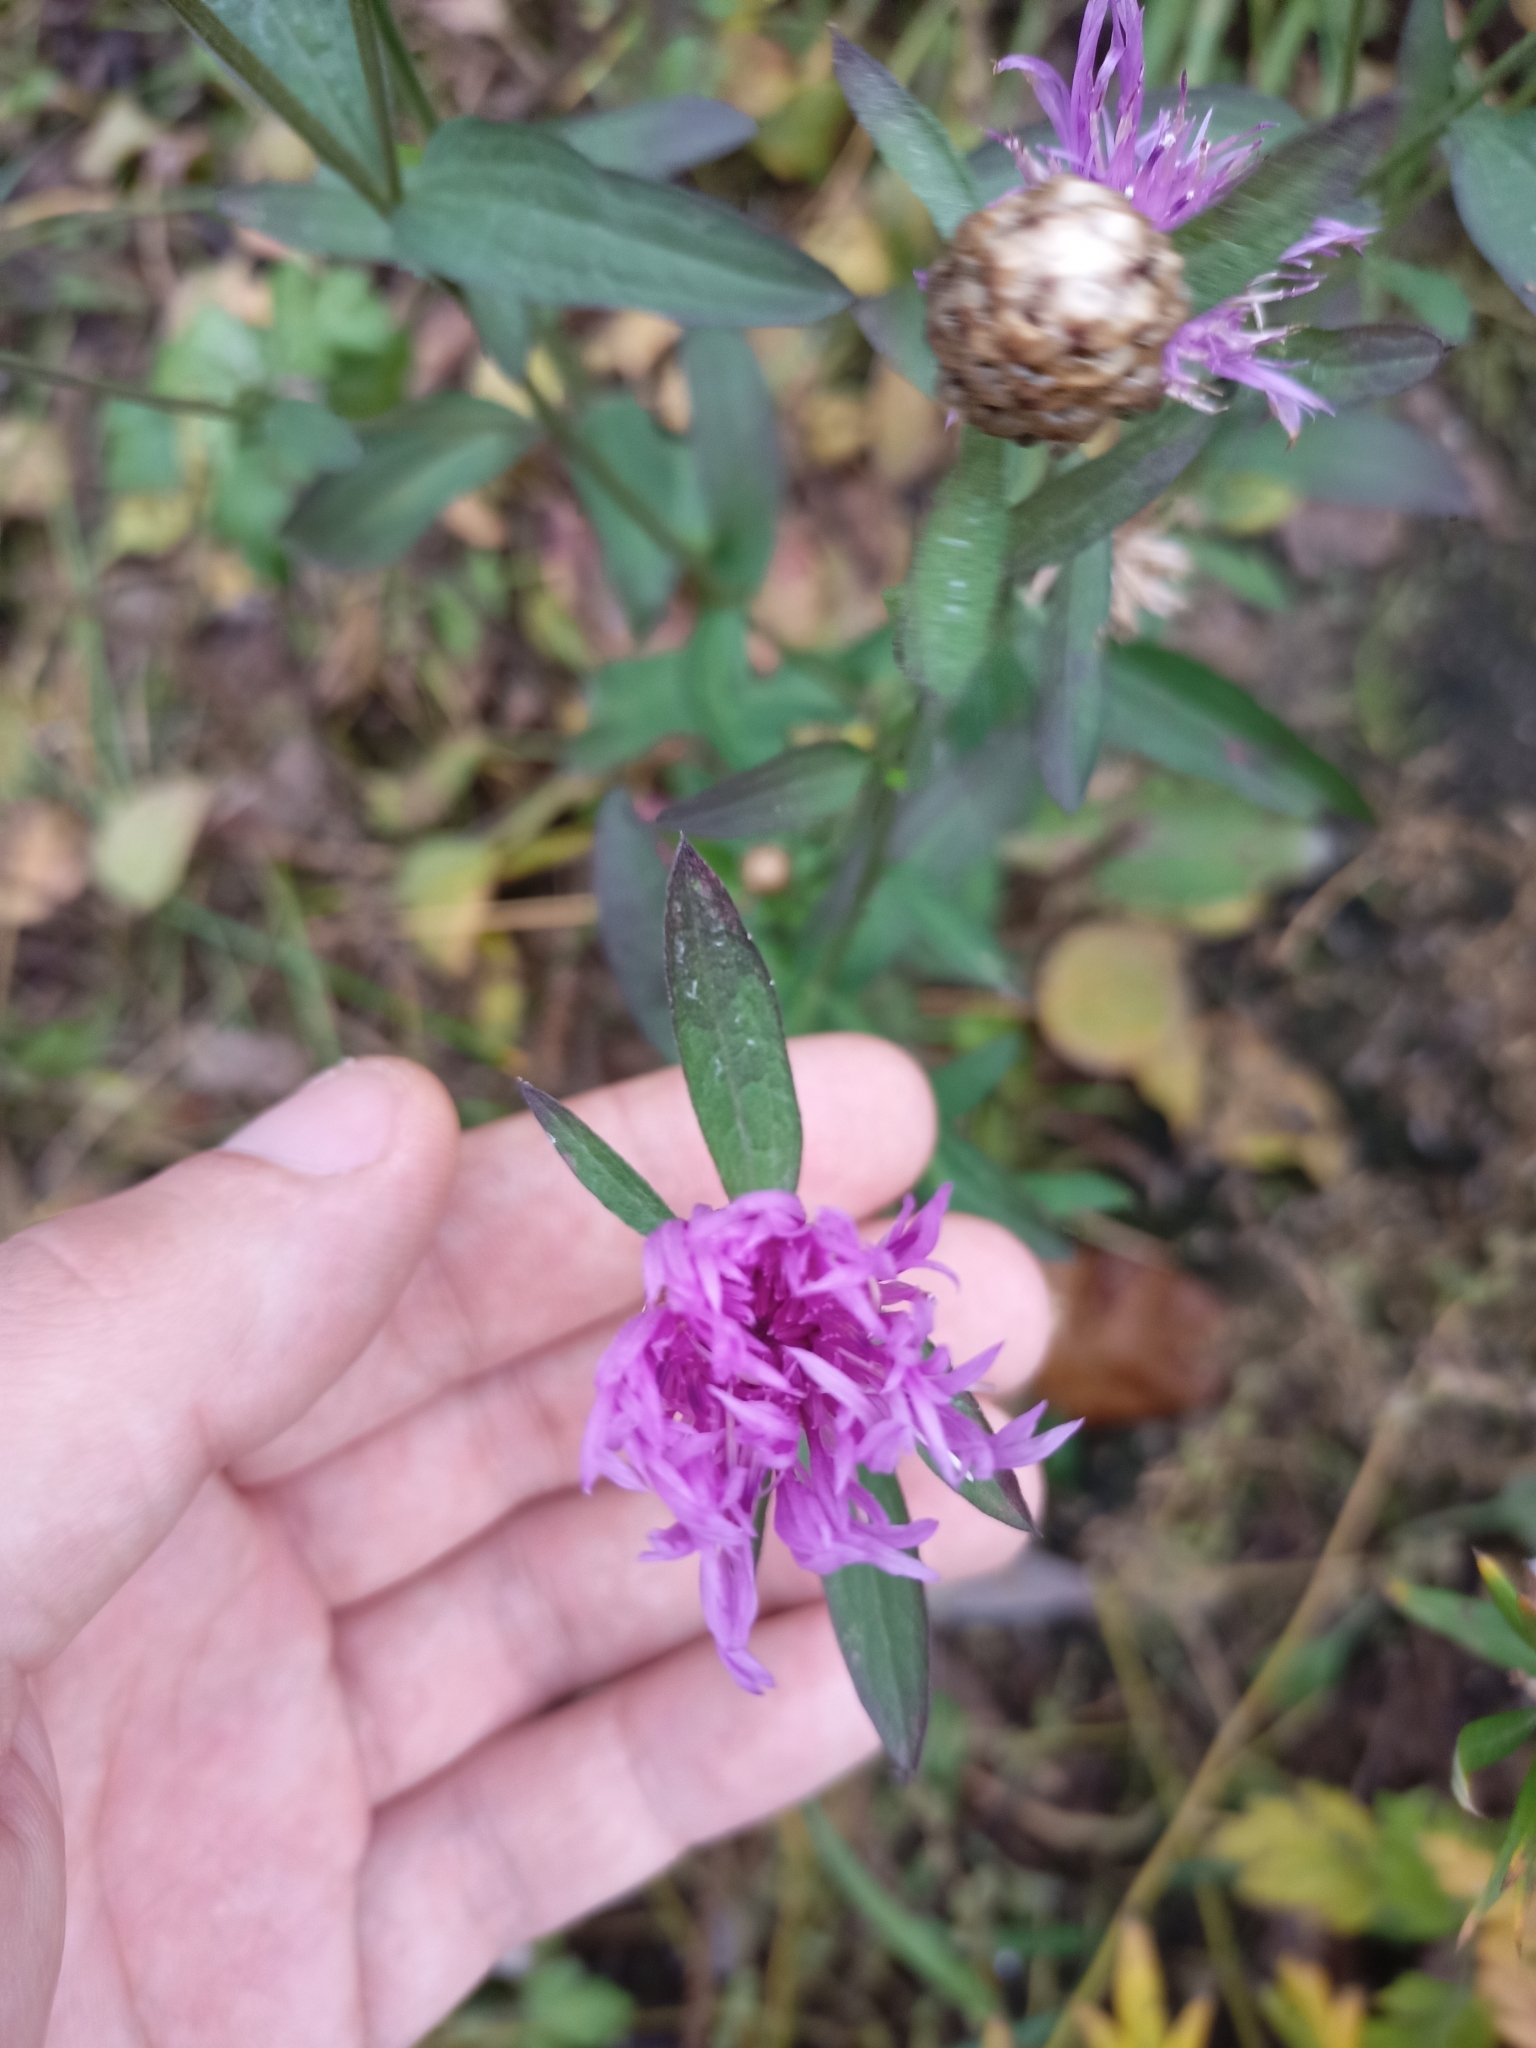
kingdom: Plantae
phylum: Tracheophyta
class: Magnoliopsida
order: Asterales
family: Asteraceae
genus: Centaurea
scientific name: Centaurea jacea
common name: Brown knapweed
